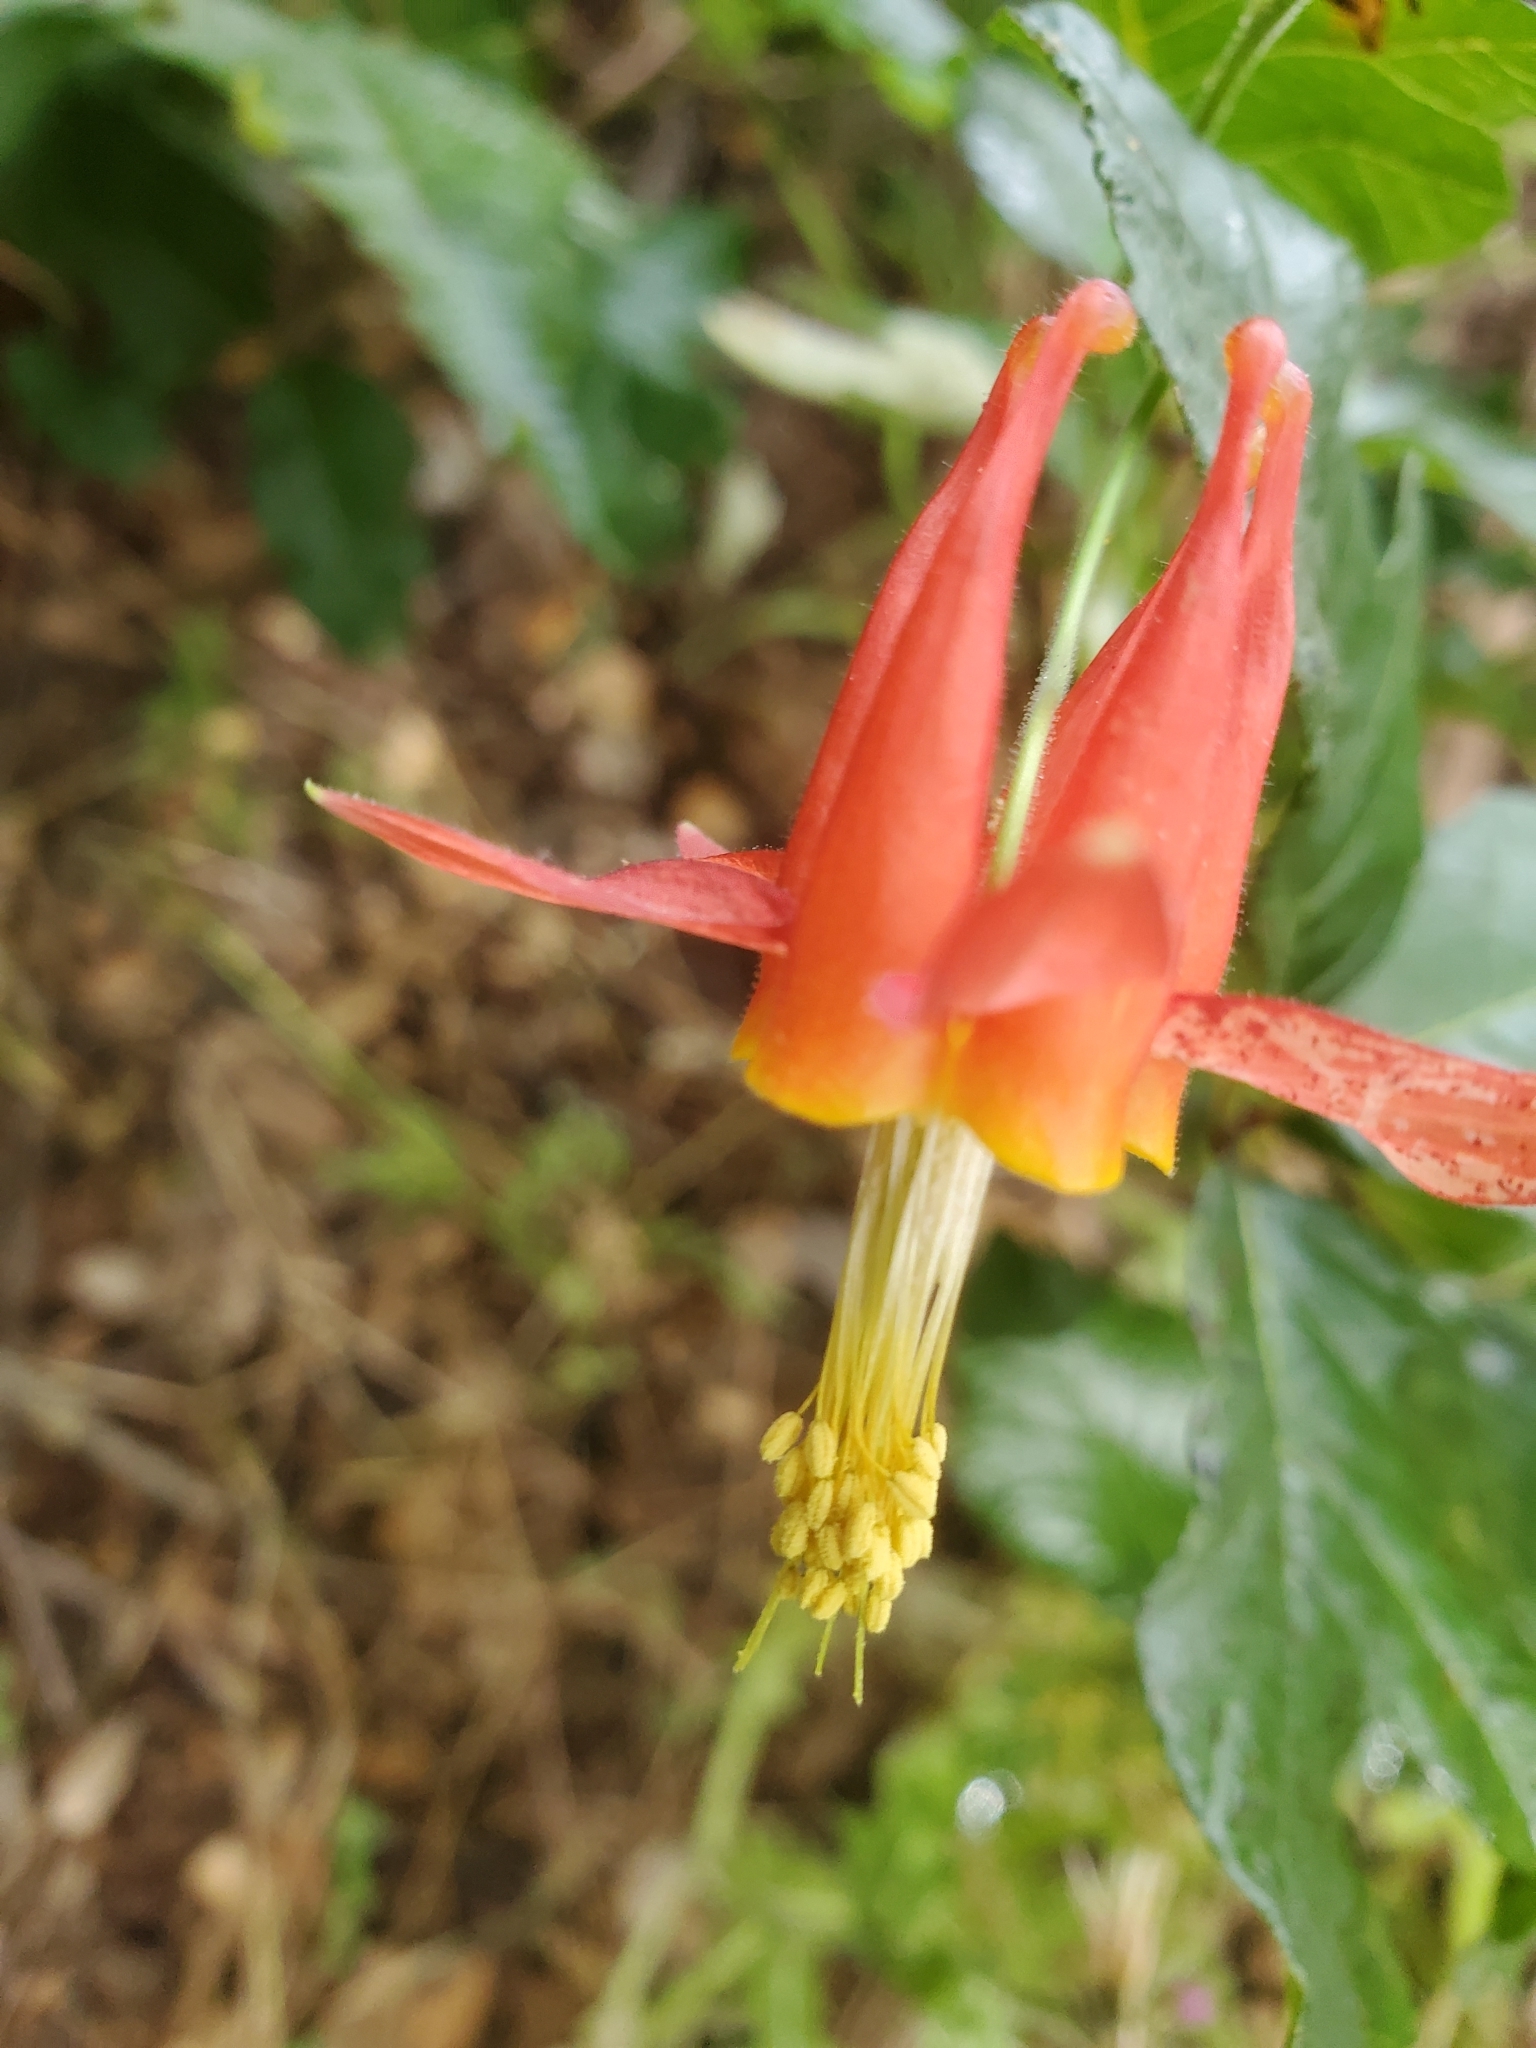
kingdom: Plantae
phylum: Tracheophyta
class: Magnoliopsida
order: Ranunculales
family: Ranunculaceae
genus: Aquilegia
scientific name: Aquilegia formosa
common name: Sitka columbine
